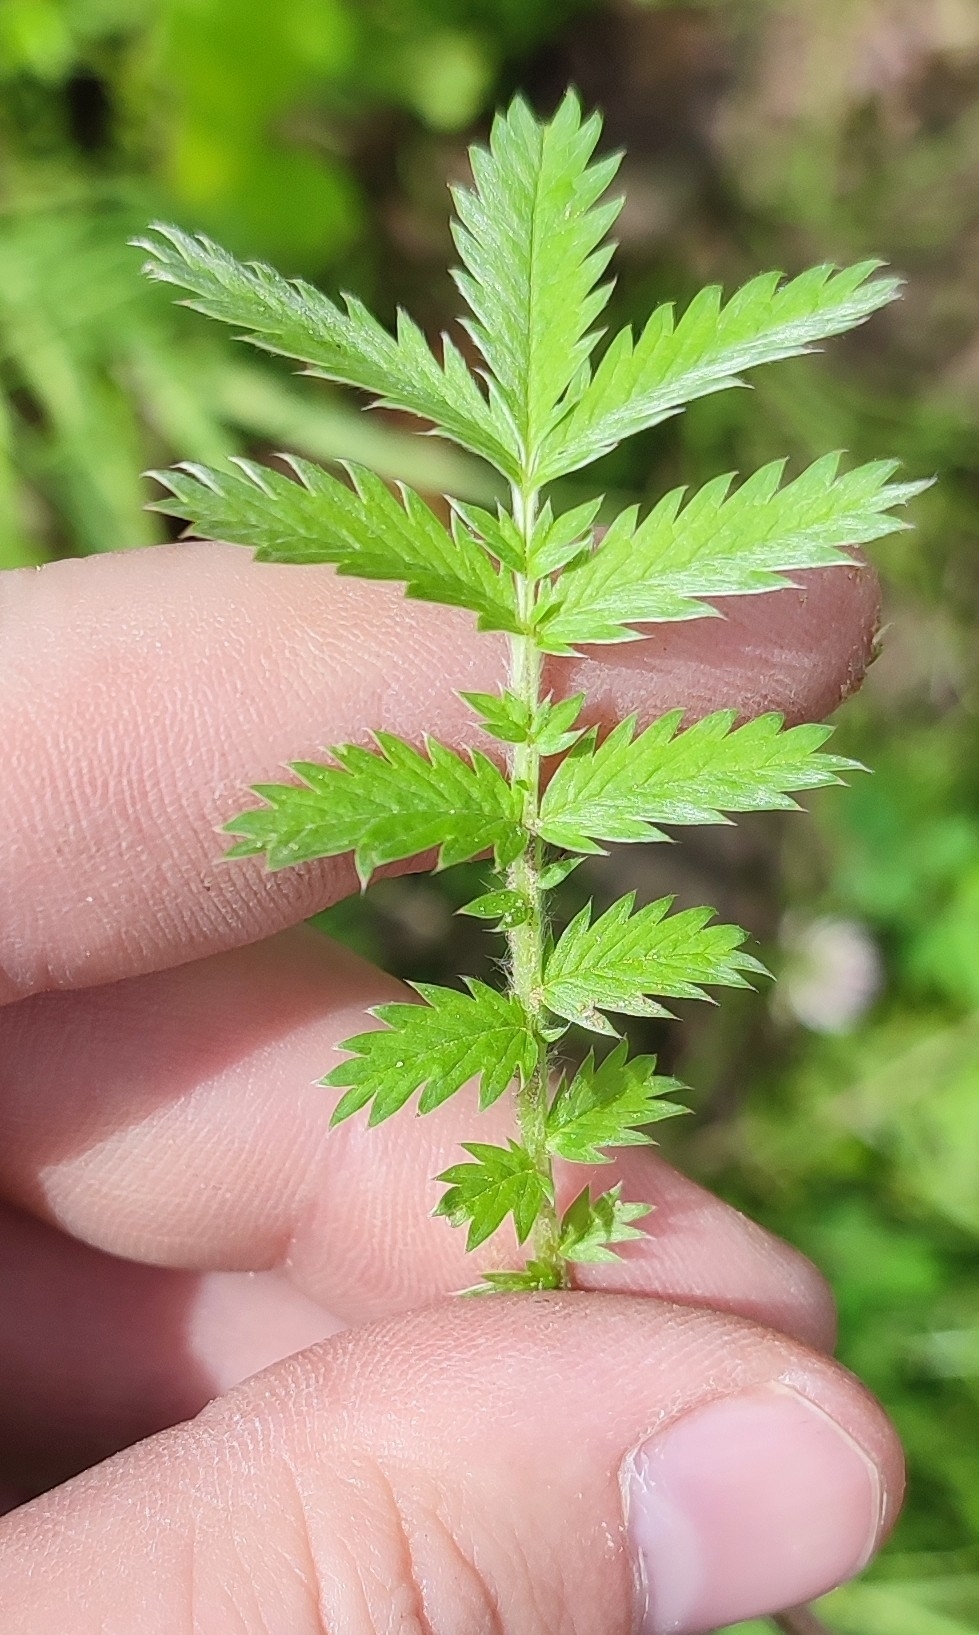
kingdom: Plantae
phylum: Tracheophyta
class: Magnoliopsida
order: Rosales
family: Rosaceae
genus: Argentina
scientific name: Argentina anserina
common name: Common silverweed
